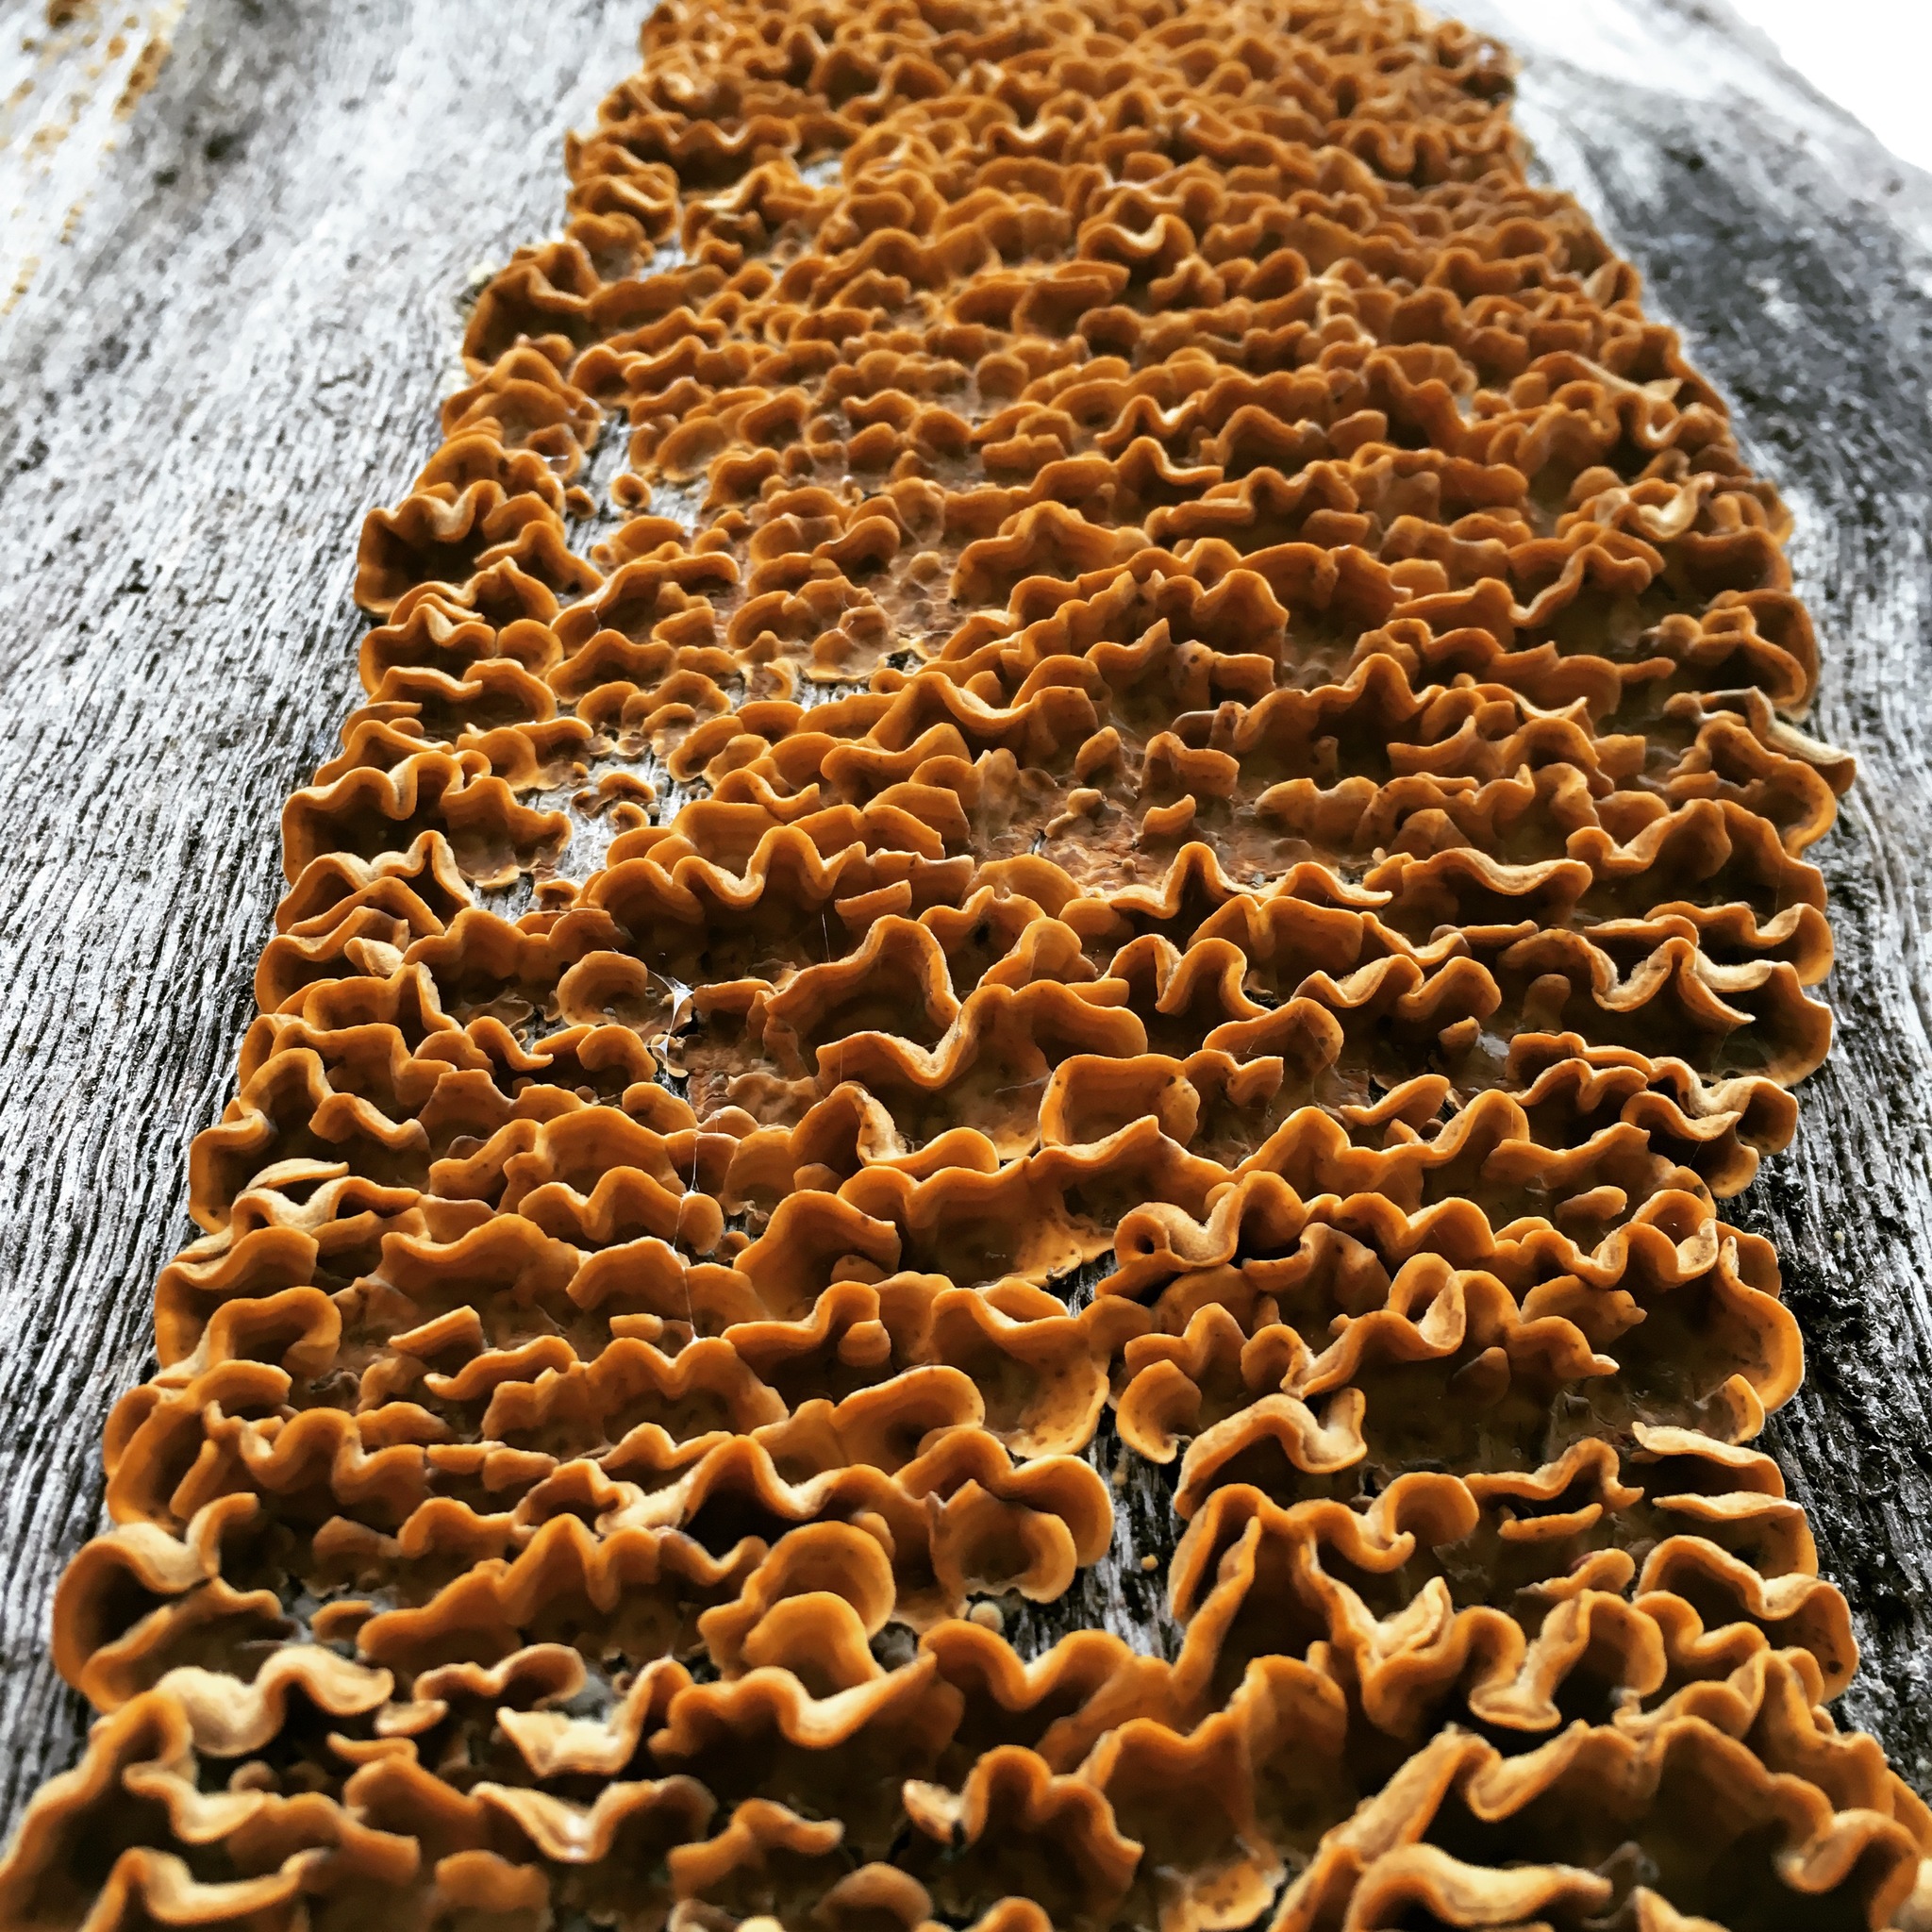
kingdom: Fungi
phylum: Basidiomycota
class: Agaricomycetes
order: Russulales
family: Stereaceae
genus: Stereum
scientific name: Stereum hirsutum
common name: Hairy curtain crust
